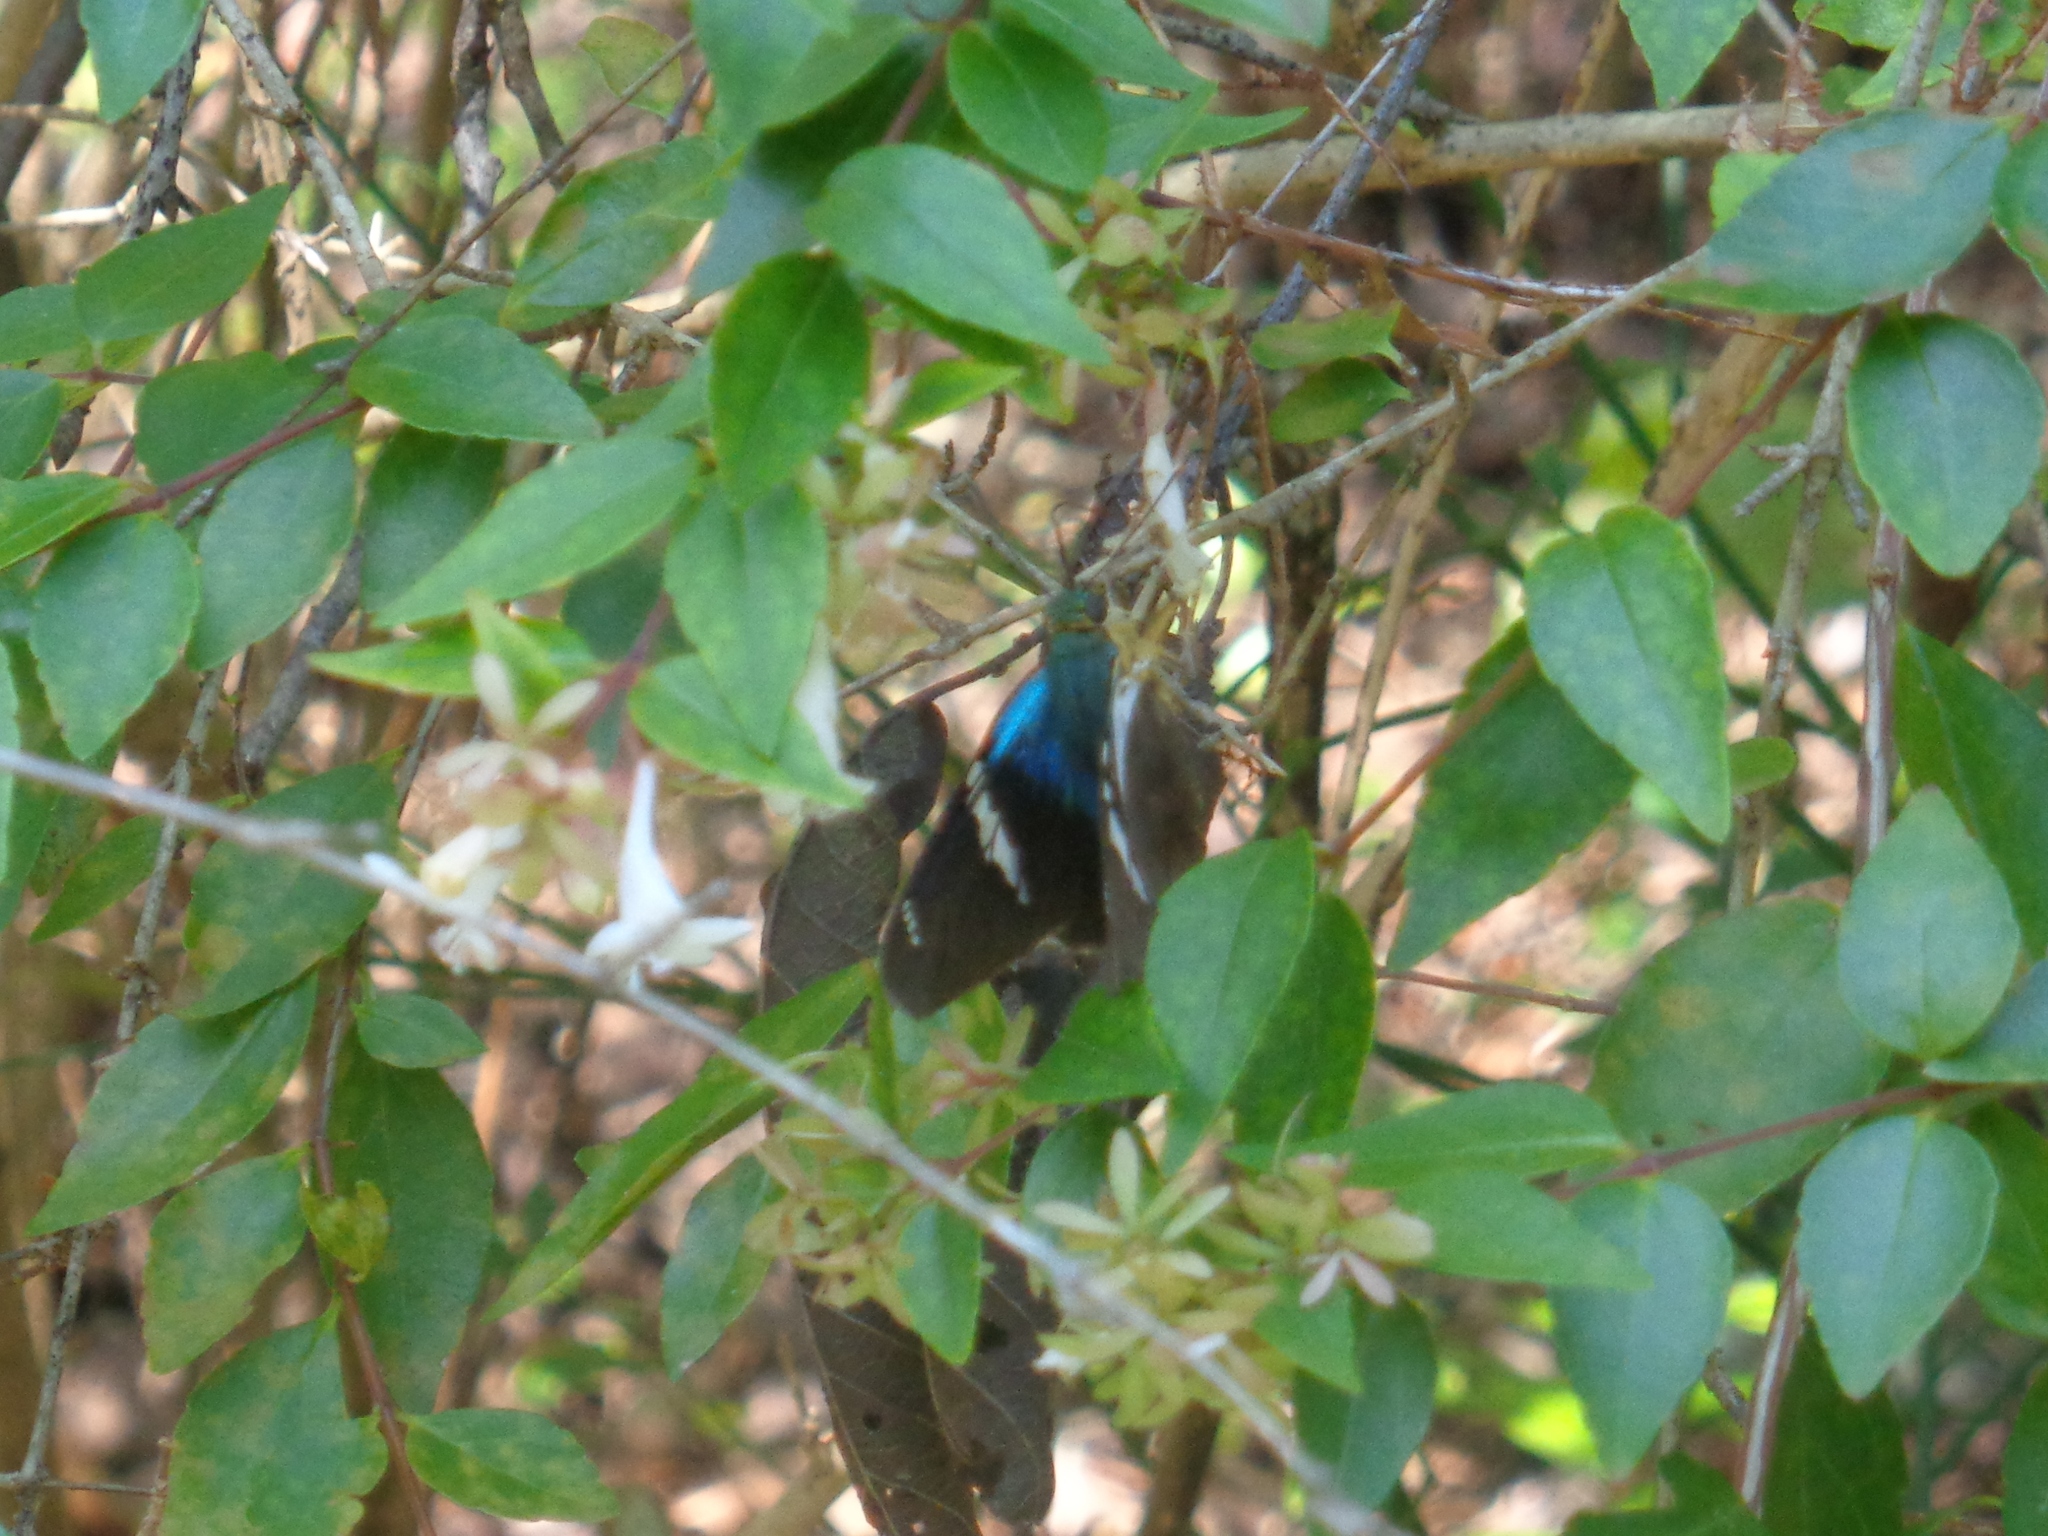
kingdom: Animalia
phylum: Arthropoda
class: Insecta
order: Lepidoptera
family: Hesperiidae
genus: Astraptes
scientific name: Astraptes fulgerator
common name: Two-barred flasher
